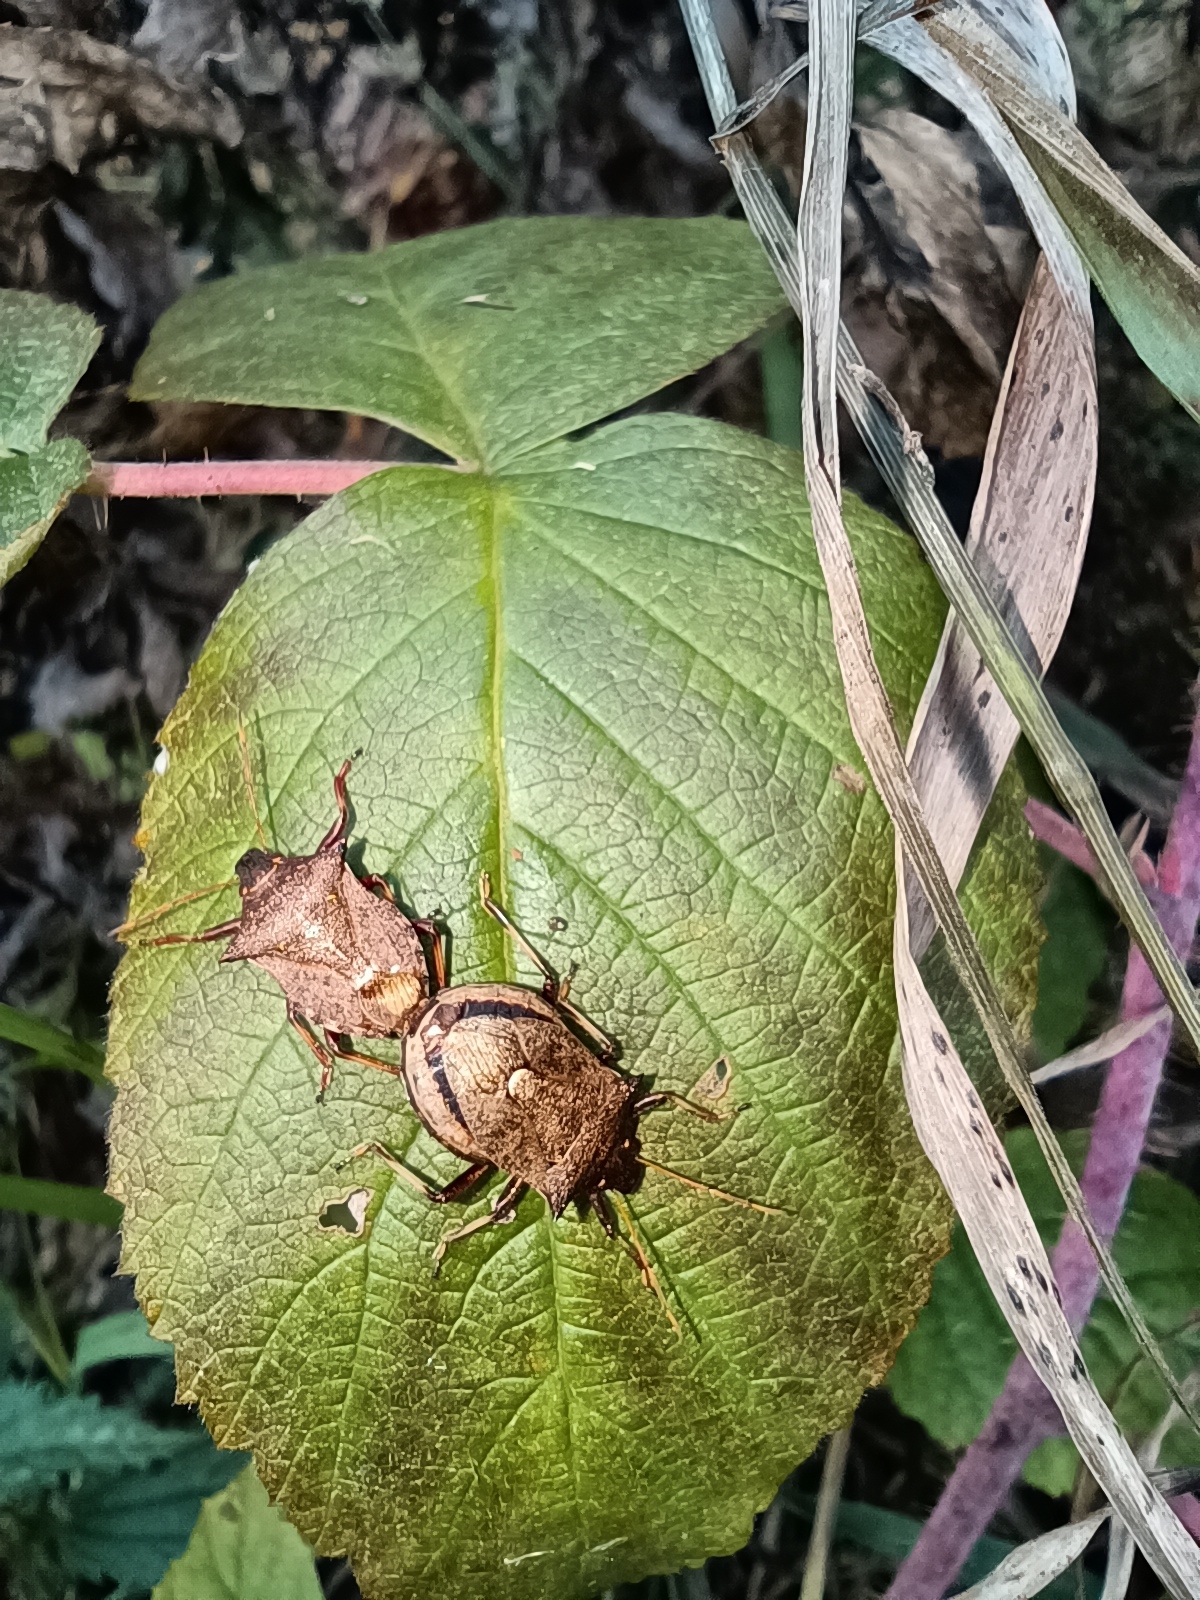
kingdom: Animalia
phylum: Arthropoda
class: Insecta
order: Hemiptera
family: Pentatomidae
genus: Picromerus
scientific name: Picromerus bidens
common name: Spiked shieldbug
